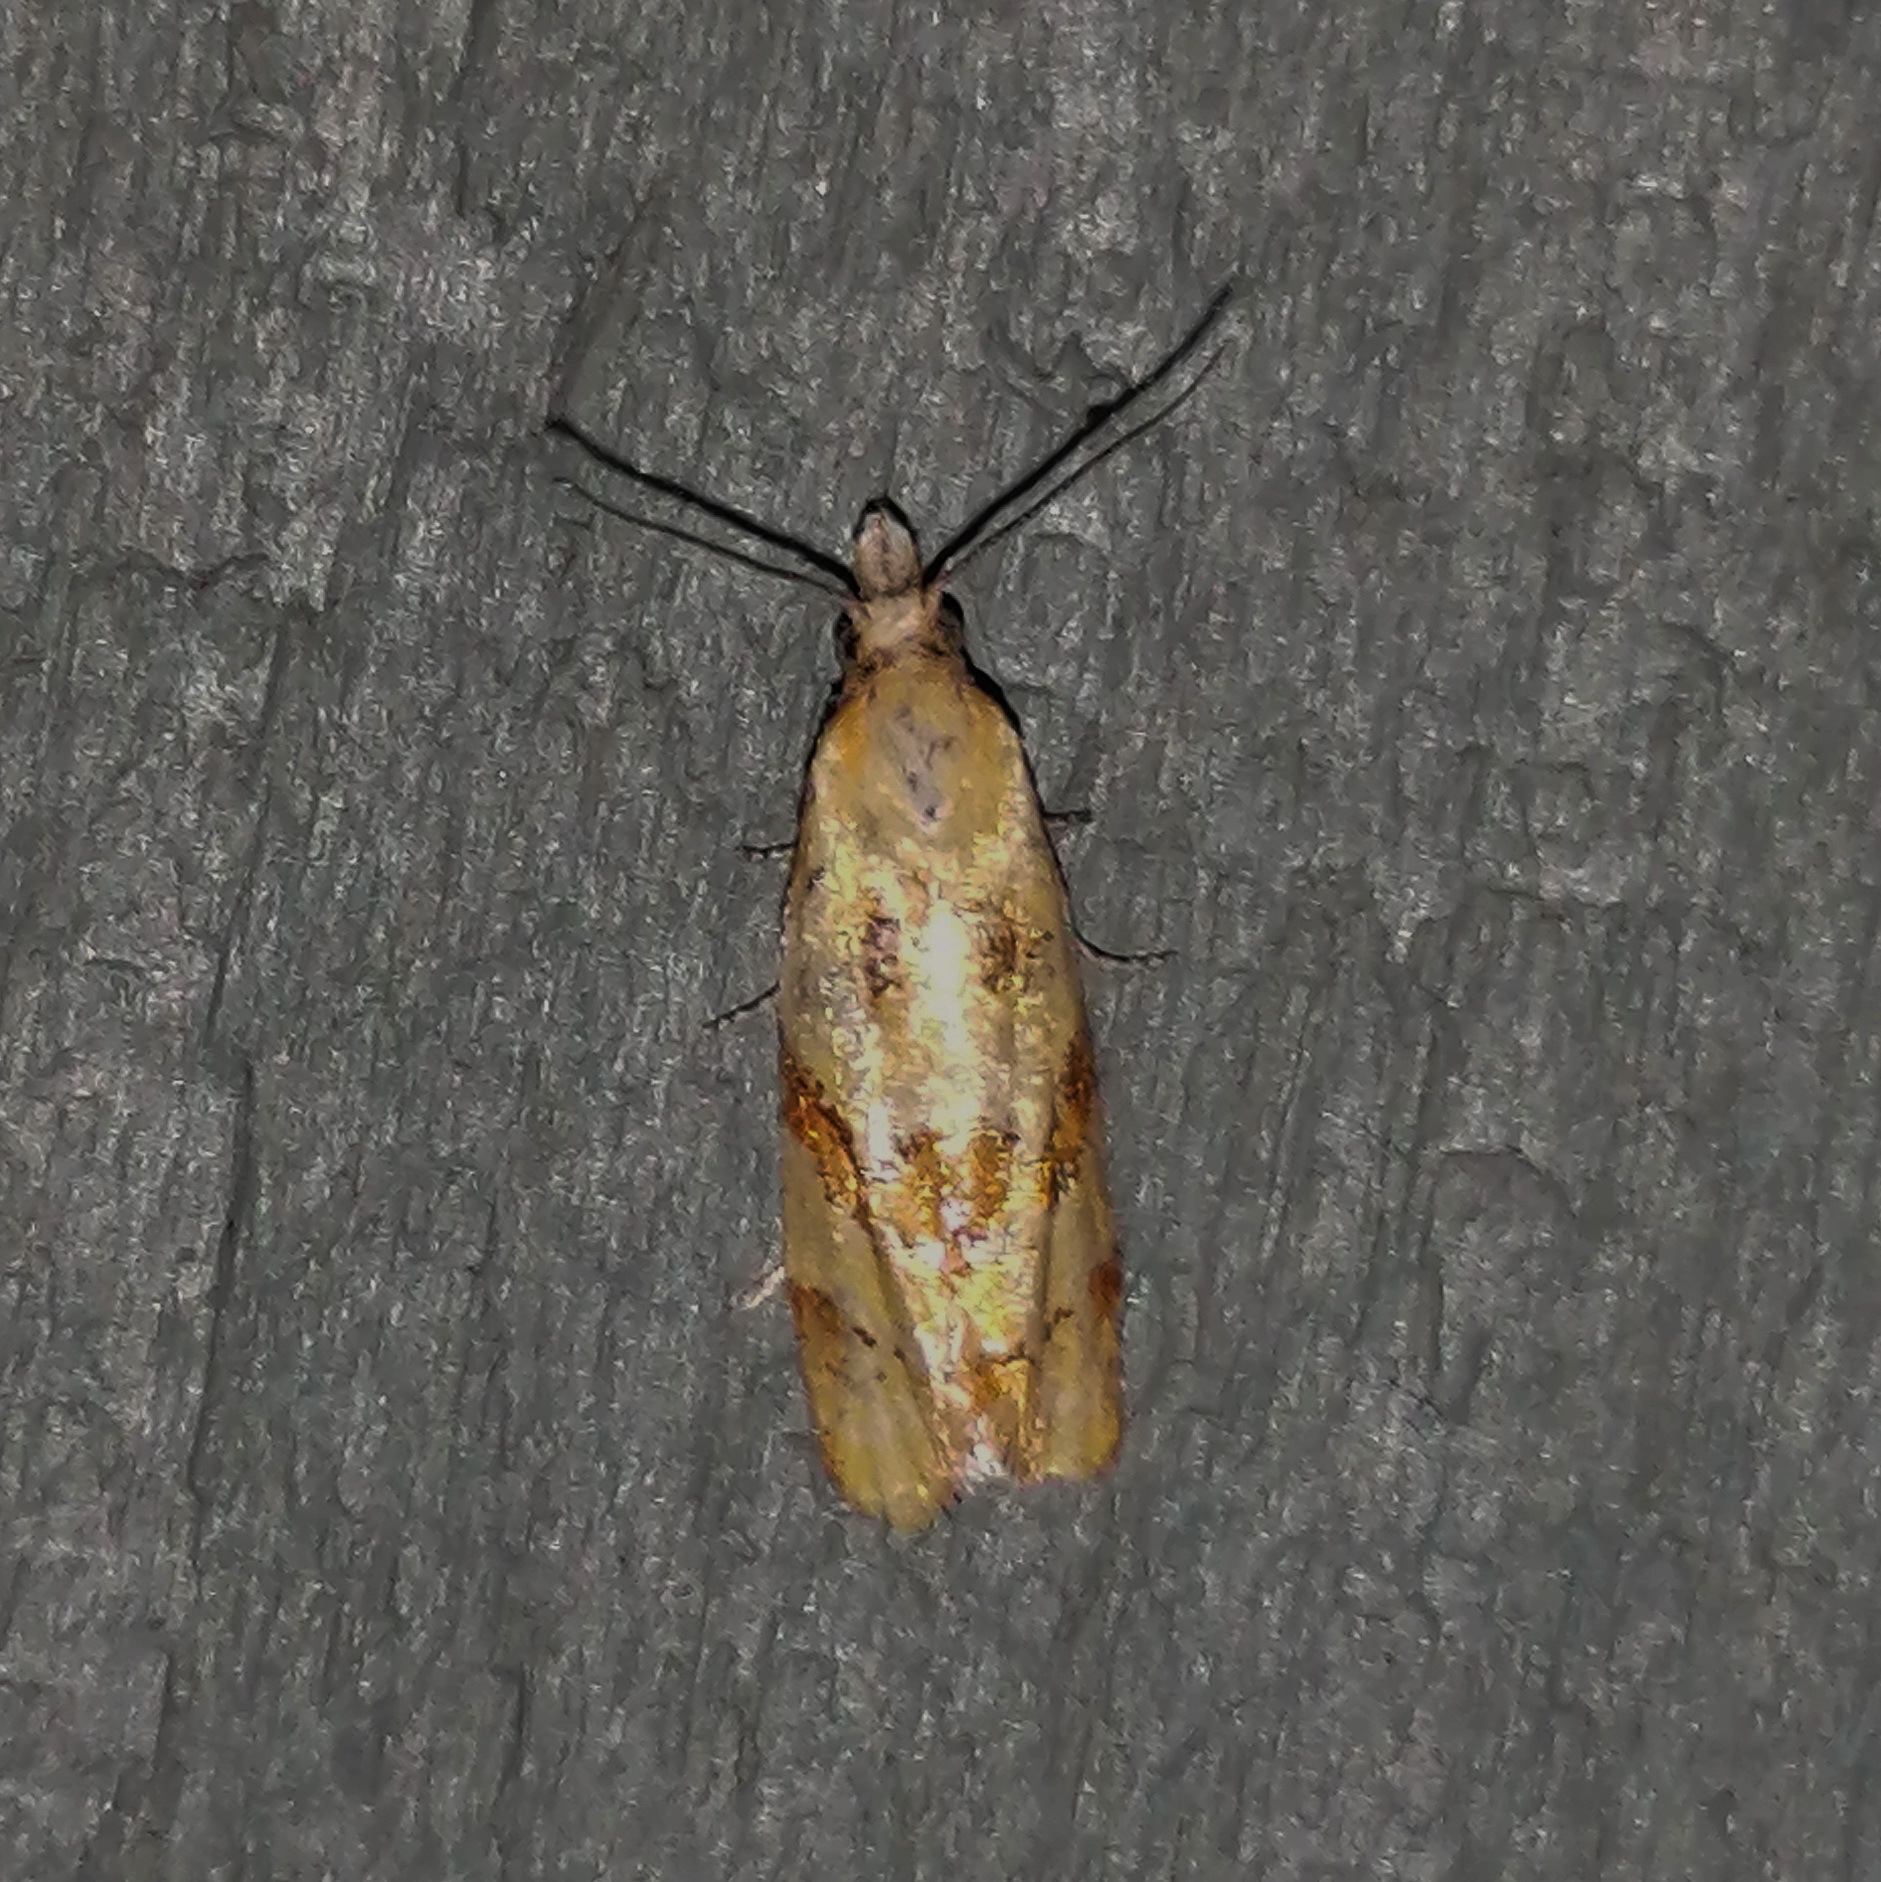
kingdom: Animalia
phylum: Arthropoda
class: Insecta
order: Lepidoptera
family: Tortricidae
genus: Phtheochroa
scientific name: Phtheochroa vitellinana
